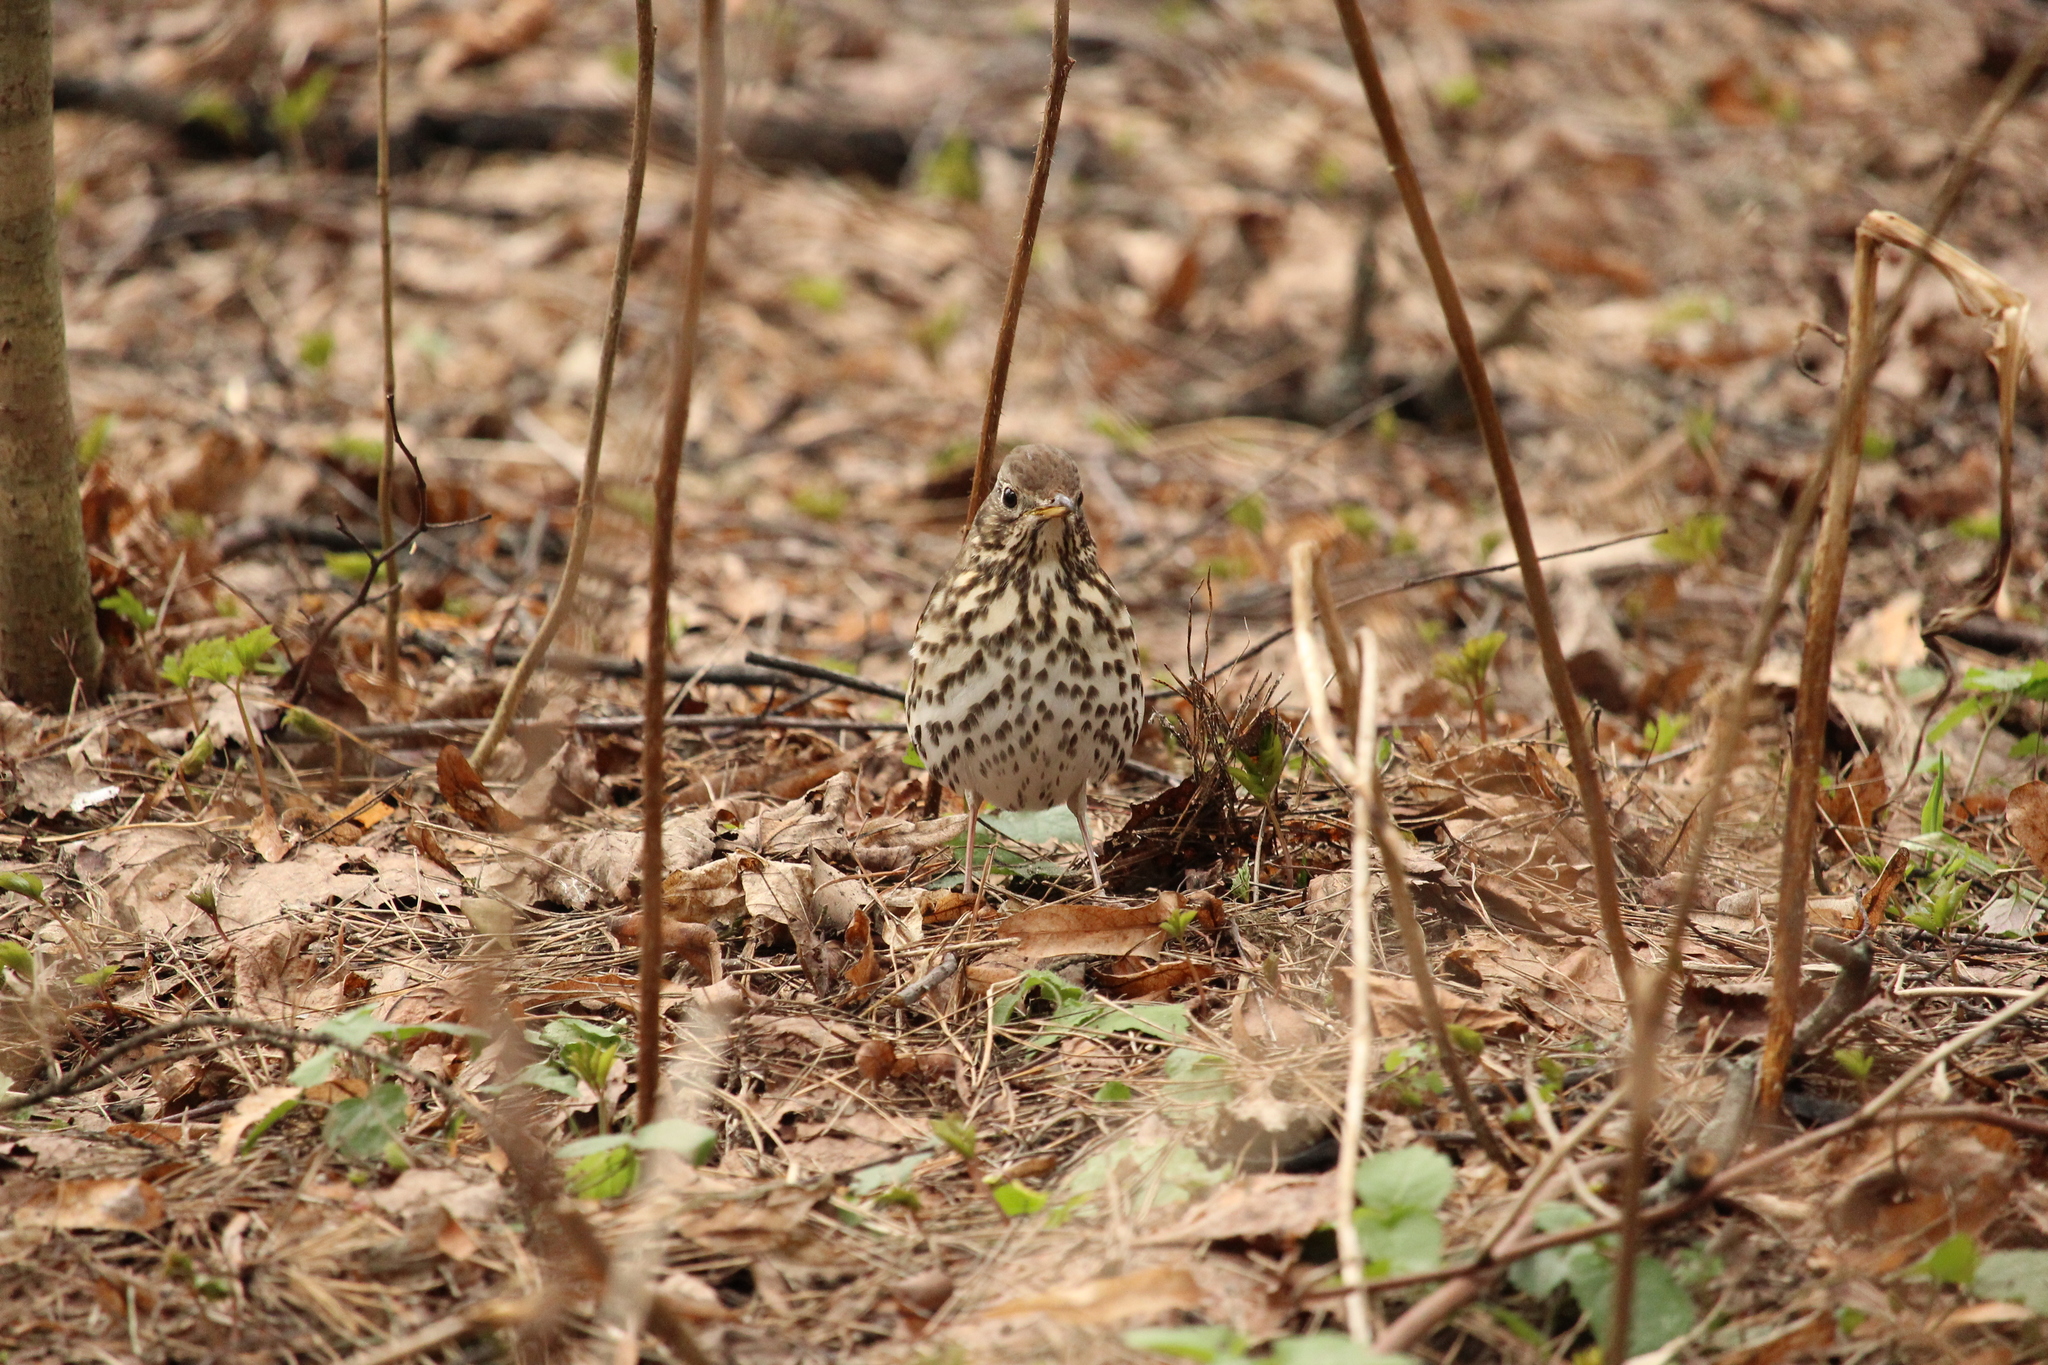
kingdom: Animalia
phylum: Chordata
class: Aves
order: Passeriformes
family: Turdidae
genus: Turdus
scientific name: Turdus philomelos
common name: Song thrush
